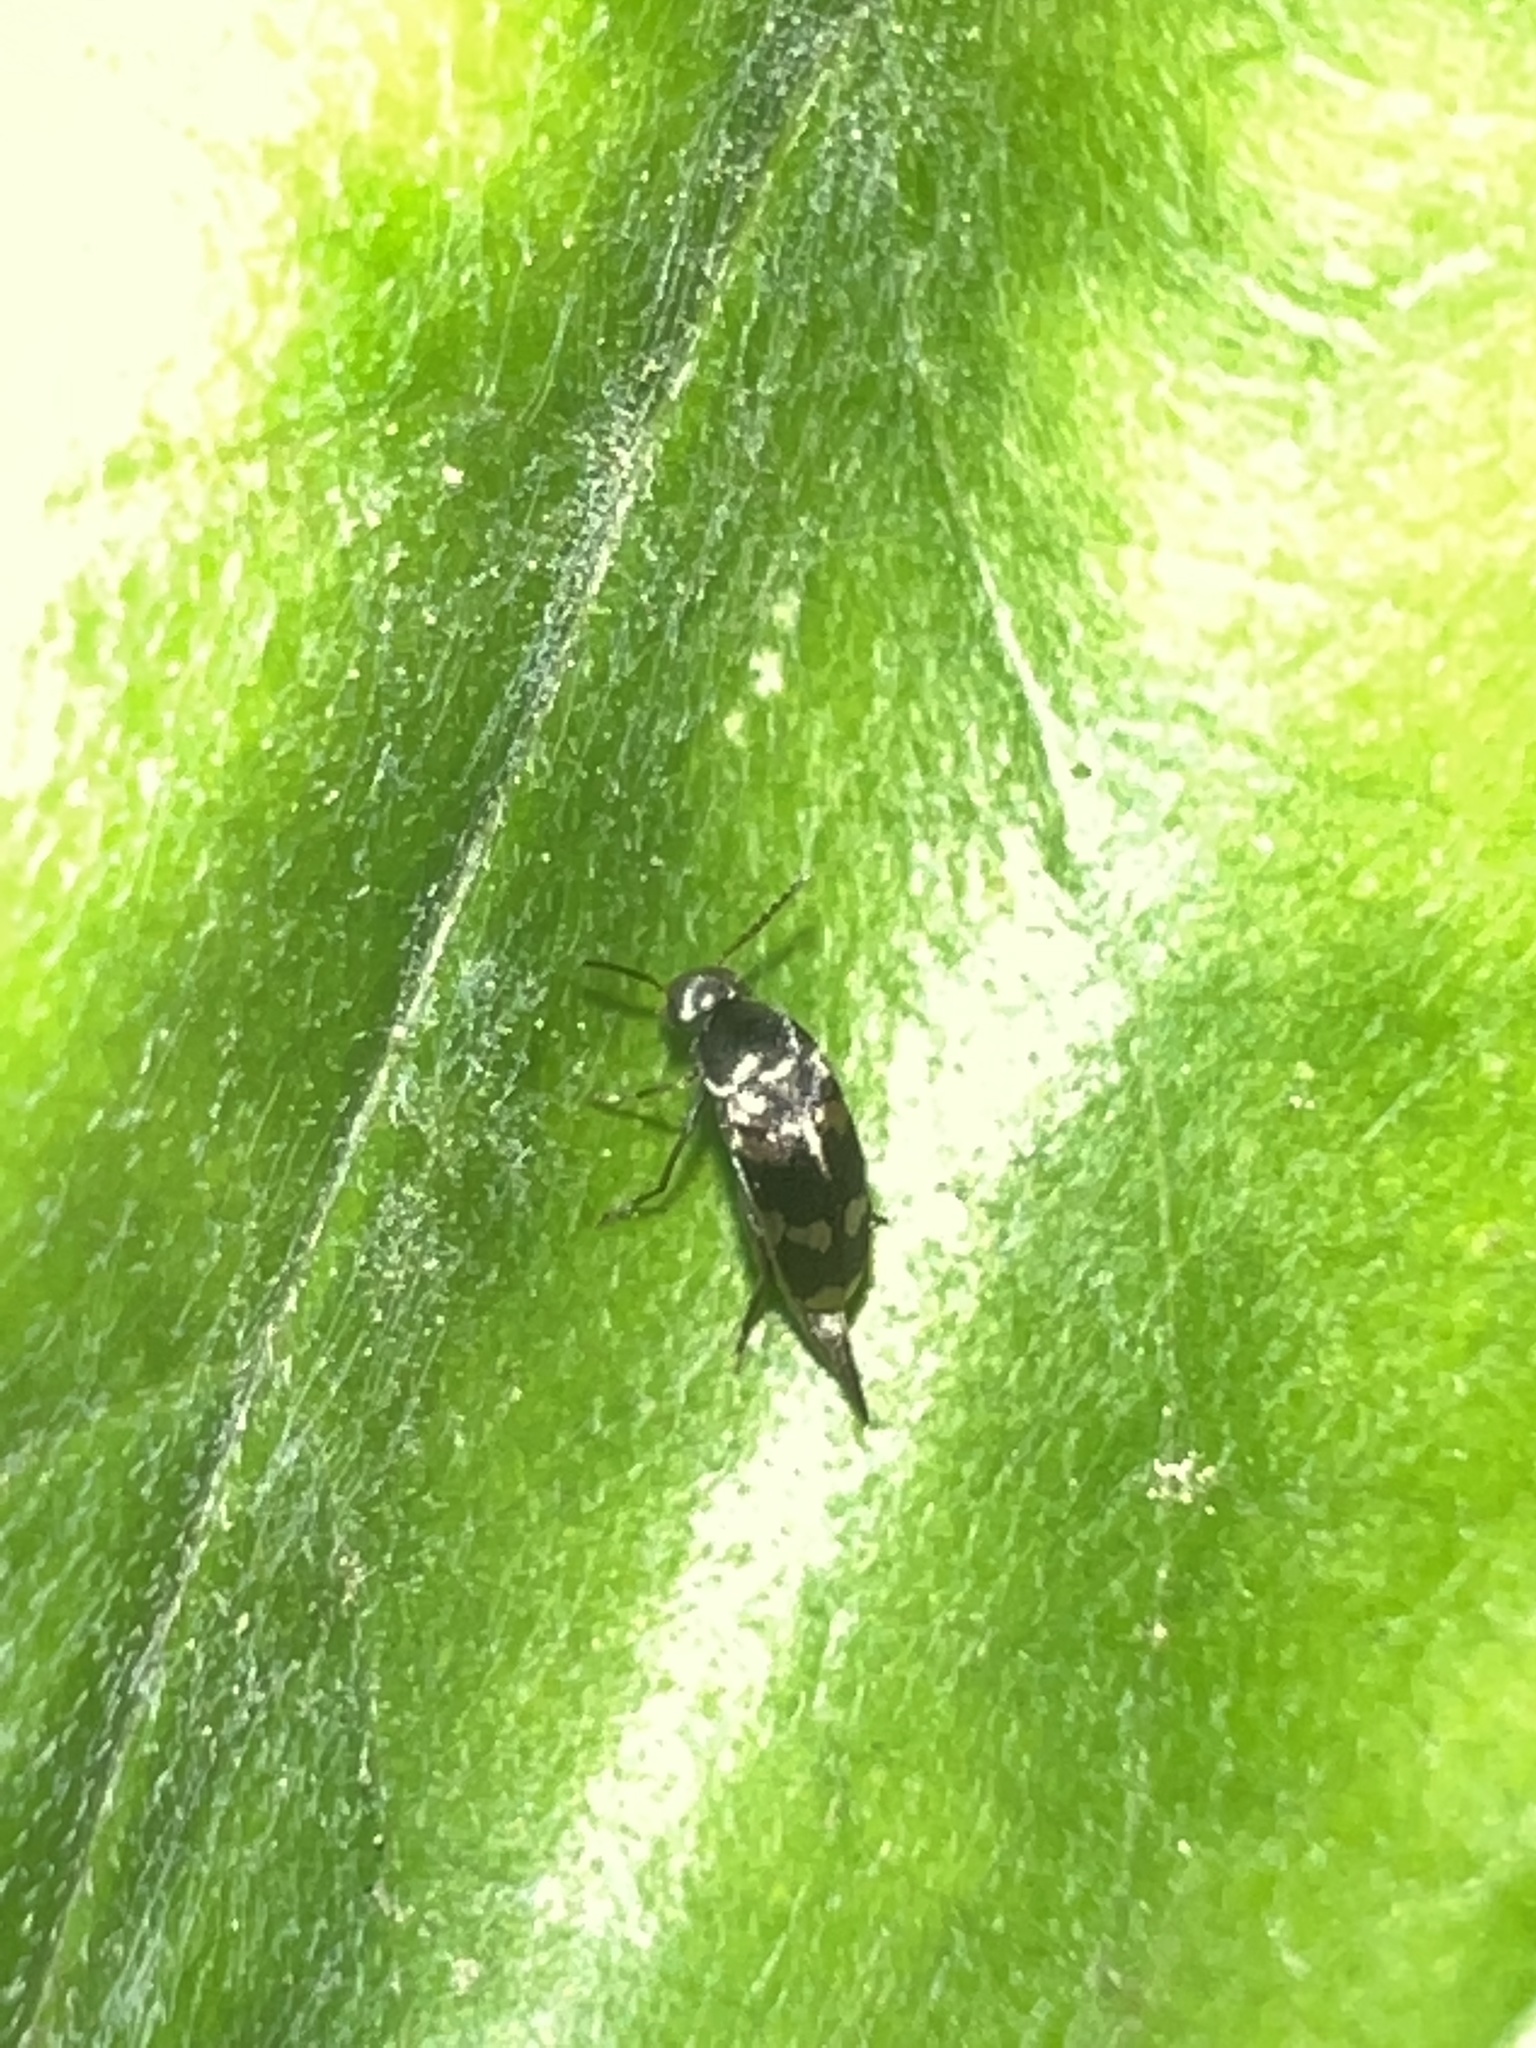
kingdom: Animalia
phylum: Arthropoda
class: Insecta
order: Coleoptera
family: Mordellidae
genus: Falsomordellistena
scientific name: Falsomordellistena pubescens
